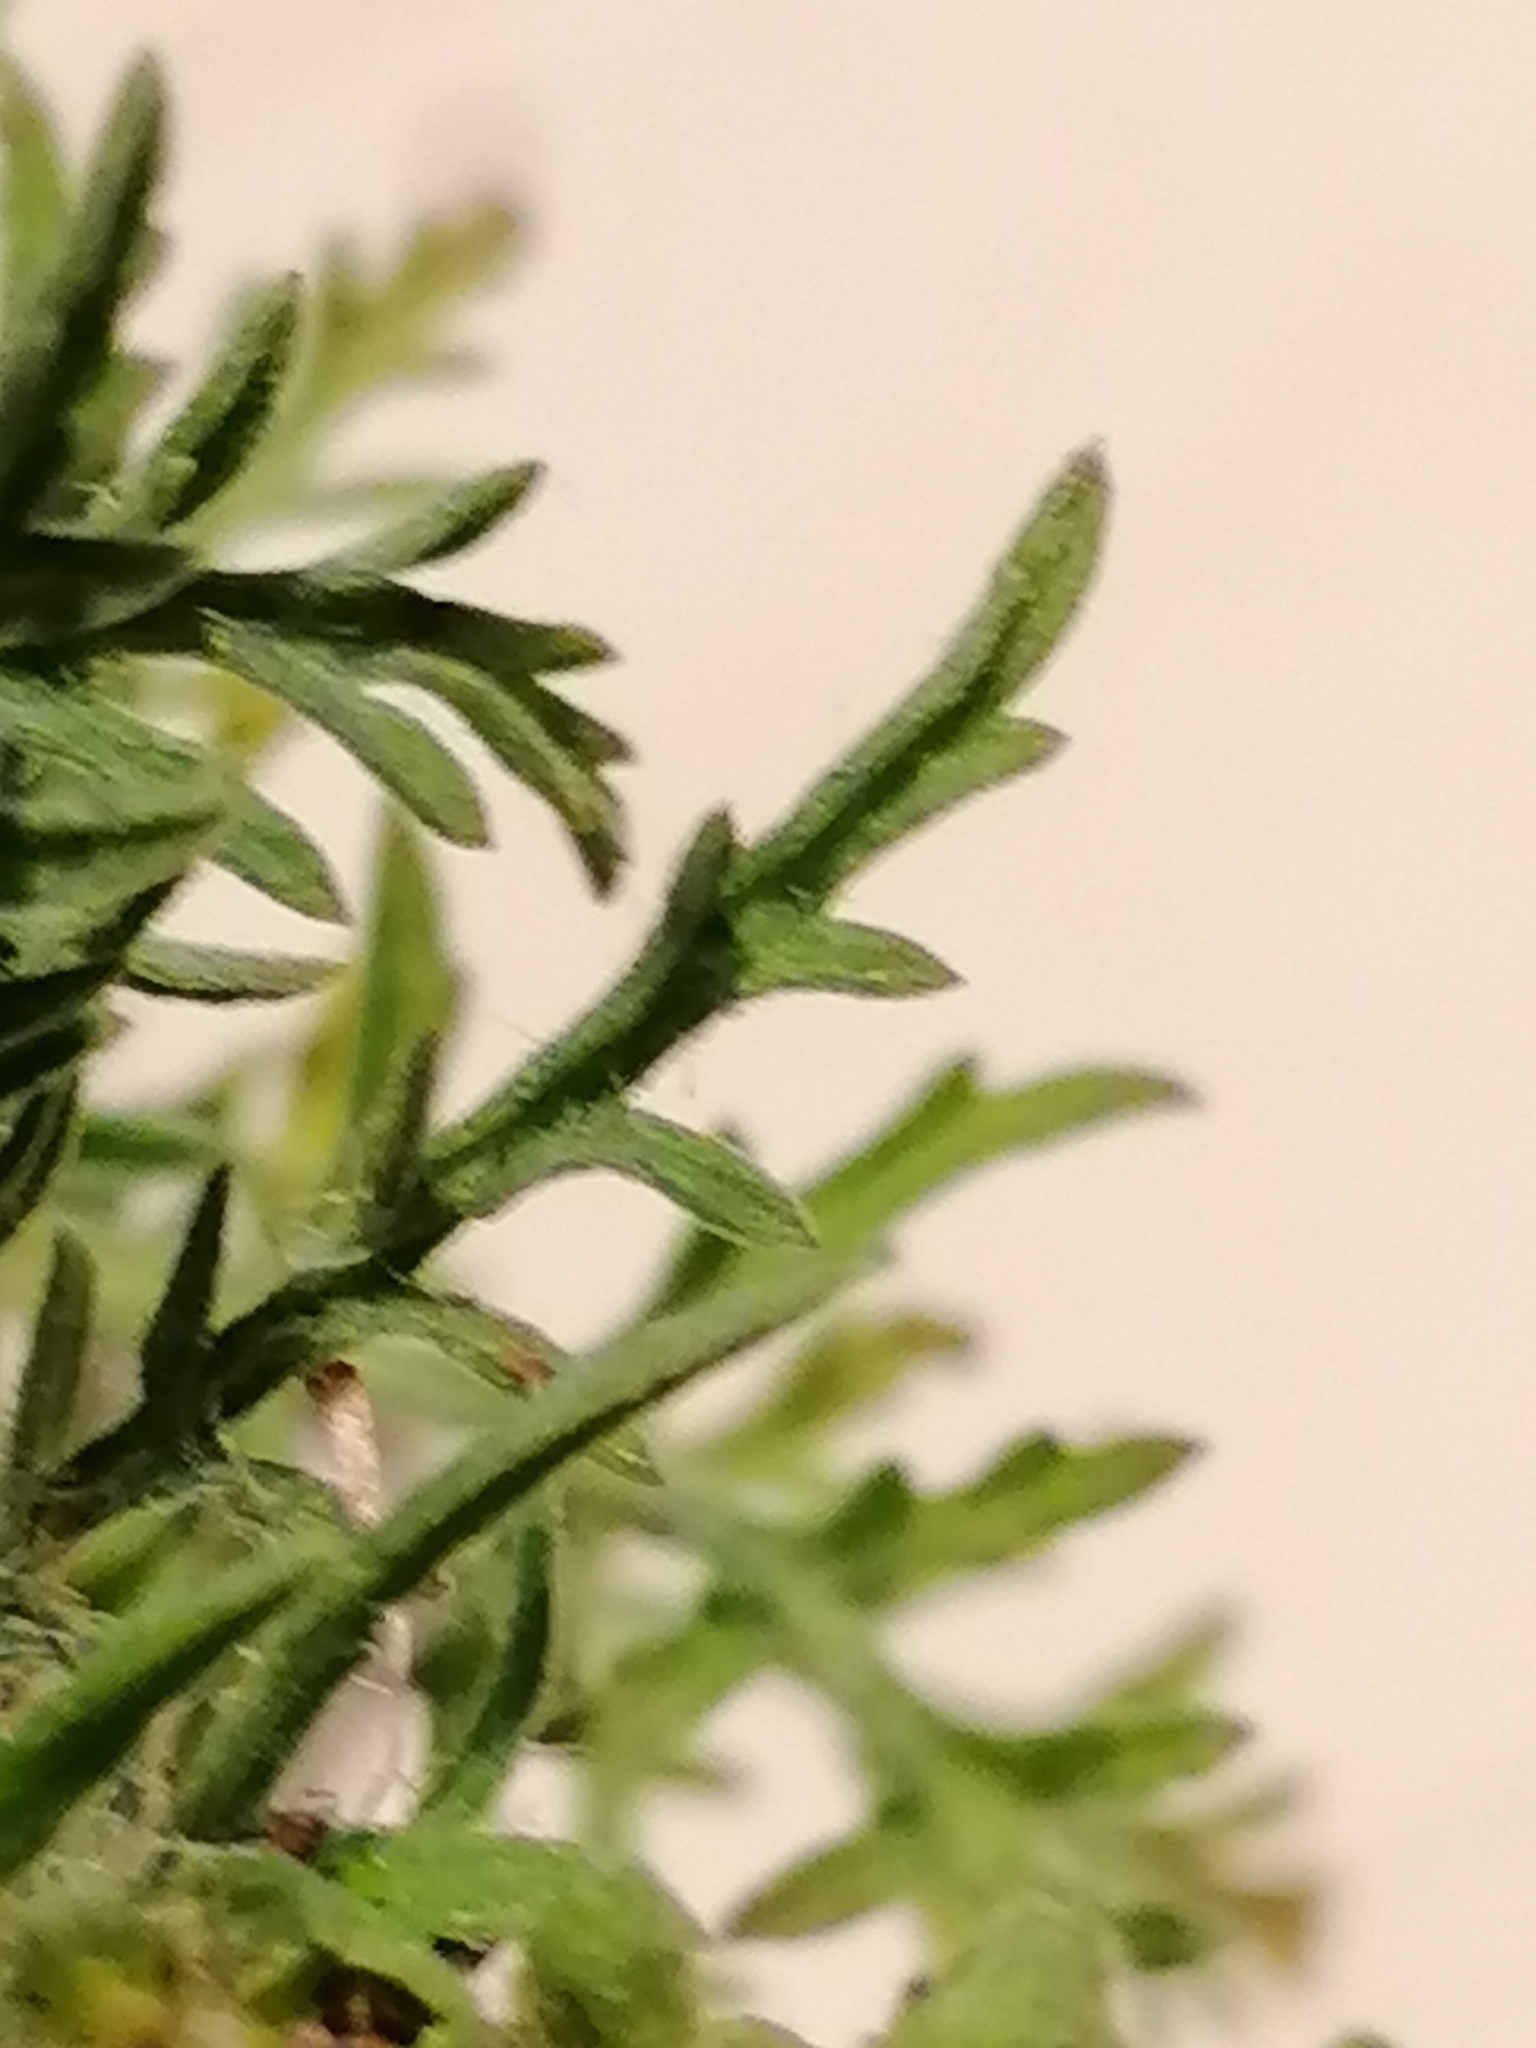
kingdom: Plantae
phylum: Tracheophyta
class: Magnoliopsida
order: Asterales
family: Asteraceae
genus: Ambrosia
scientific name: Ambrosia tenuifolia
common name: Lacy ambrosia
